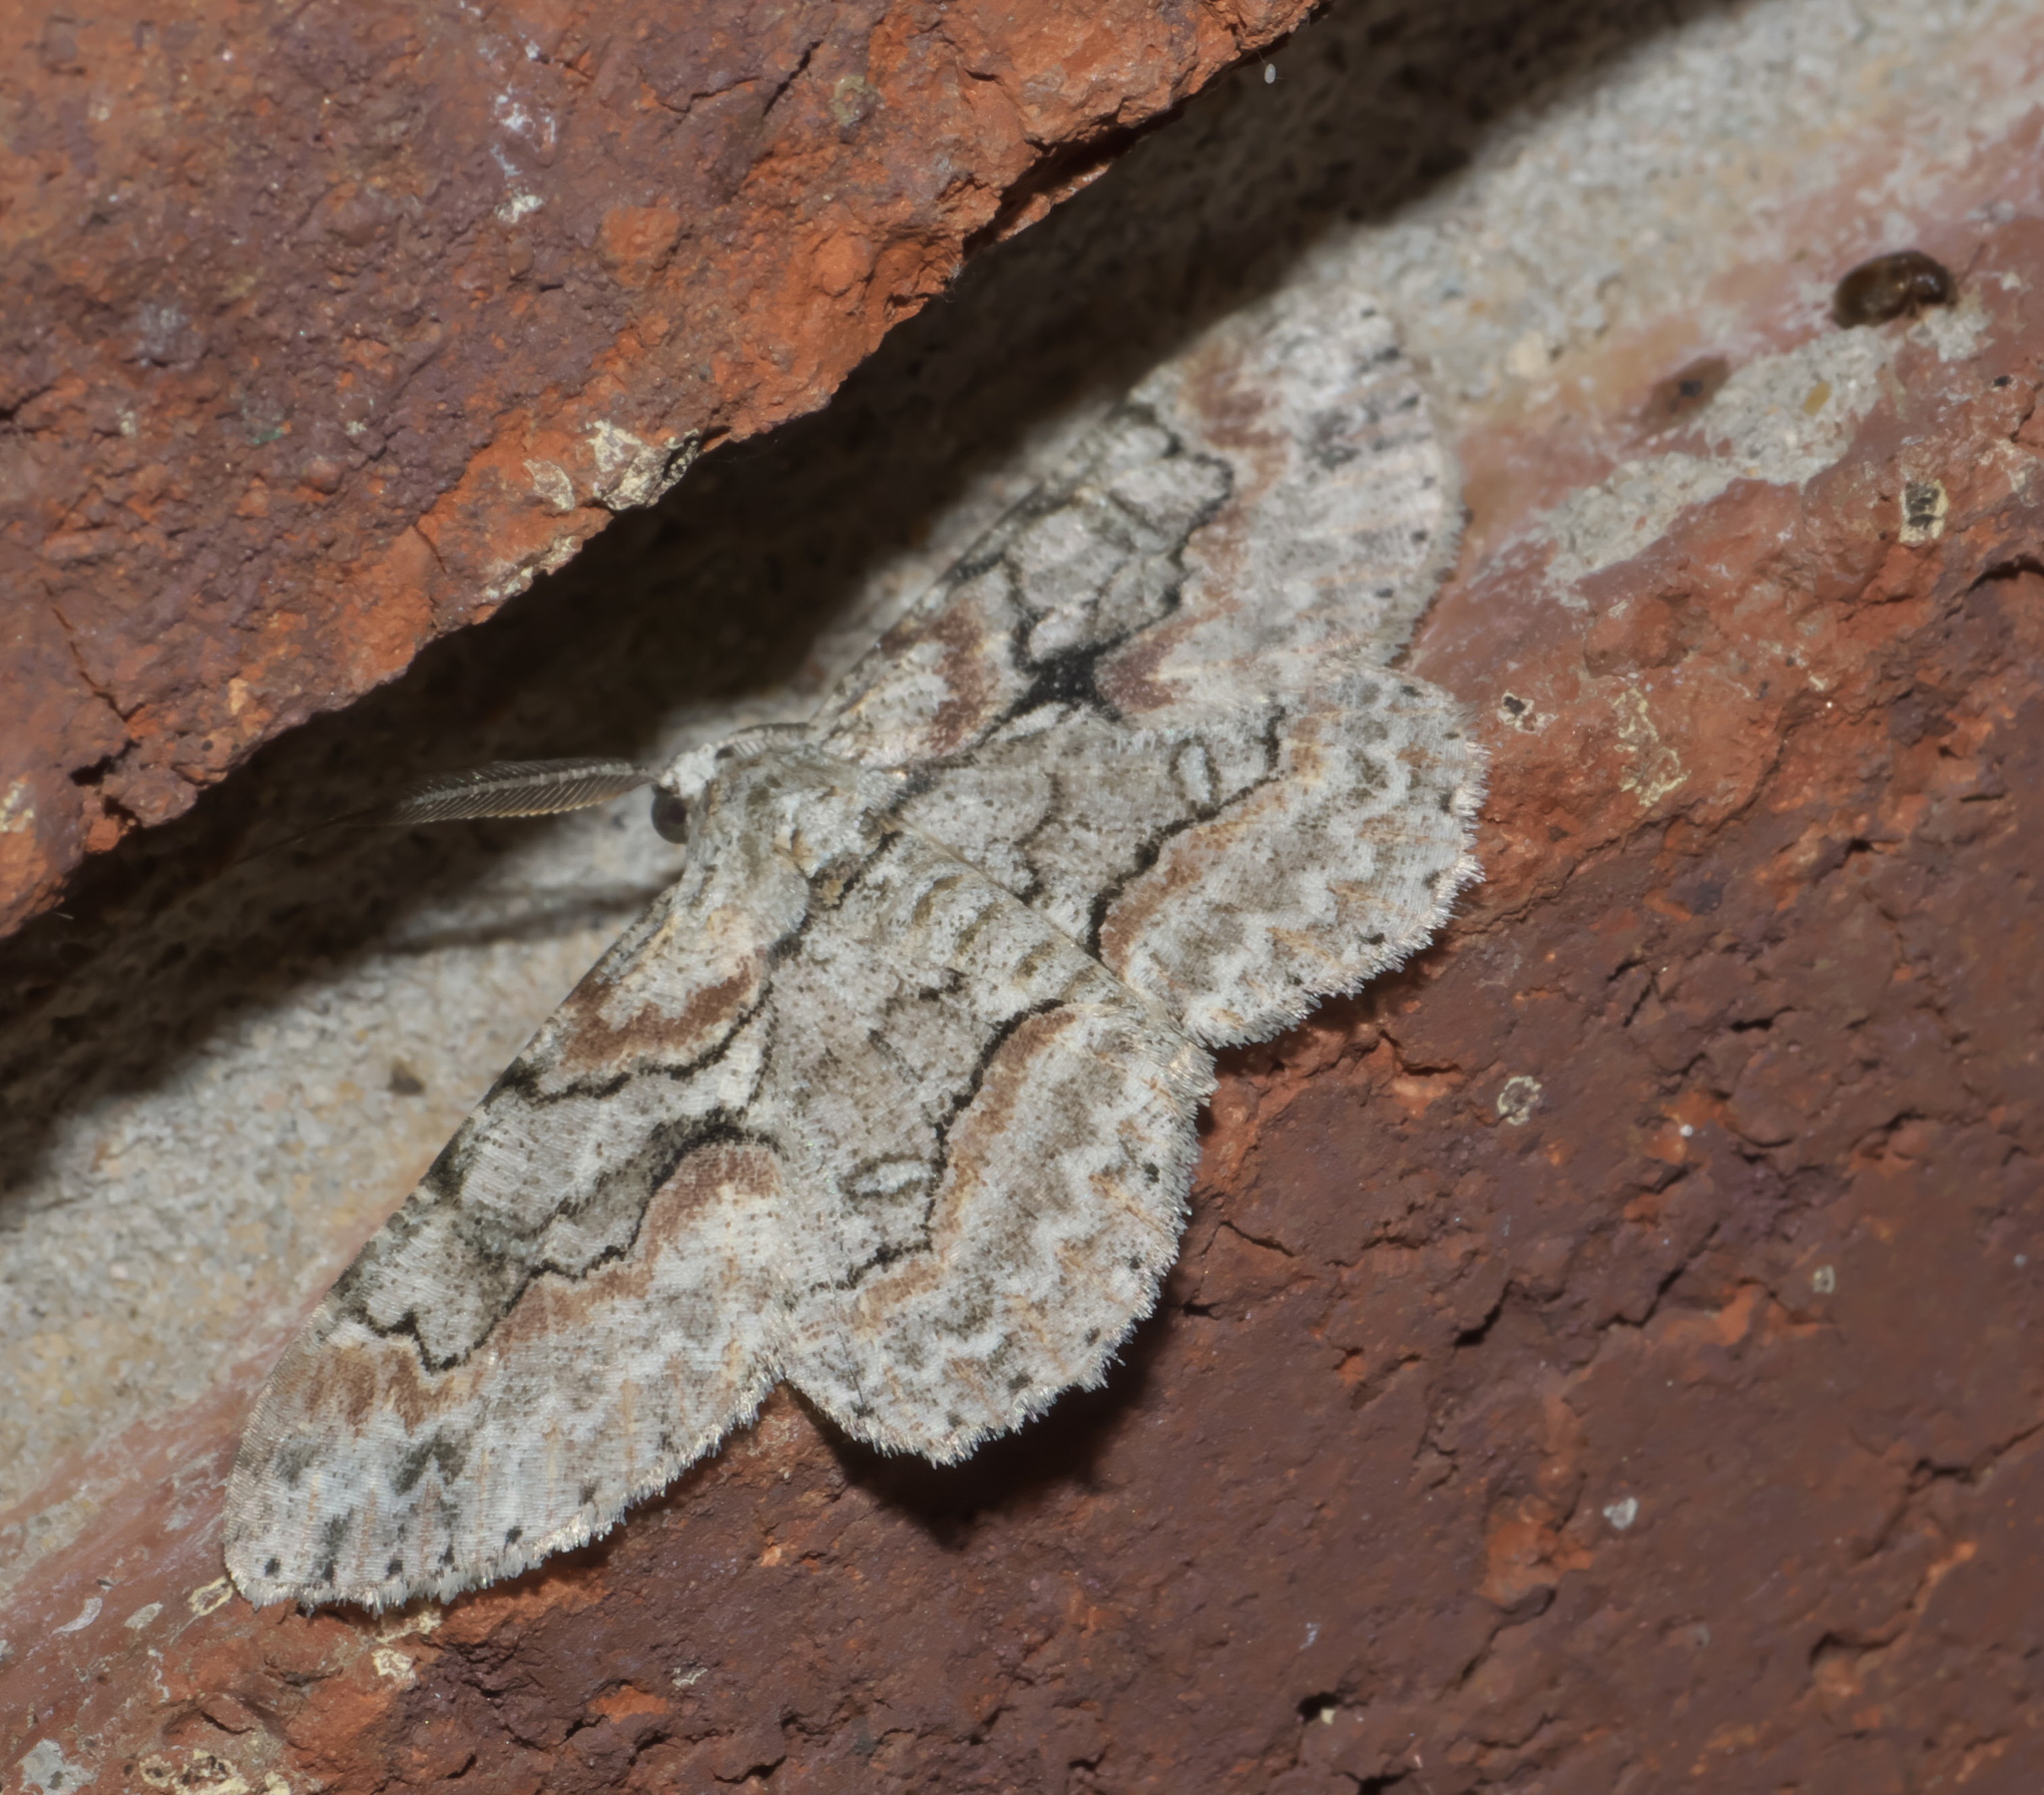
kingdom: Animalia
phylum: Arthropoda
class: Insecta
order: Lepidoptera
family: Geometridae
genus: Iridopsis
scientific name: Iridopsis defectaria
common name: Brown-shaded gray
